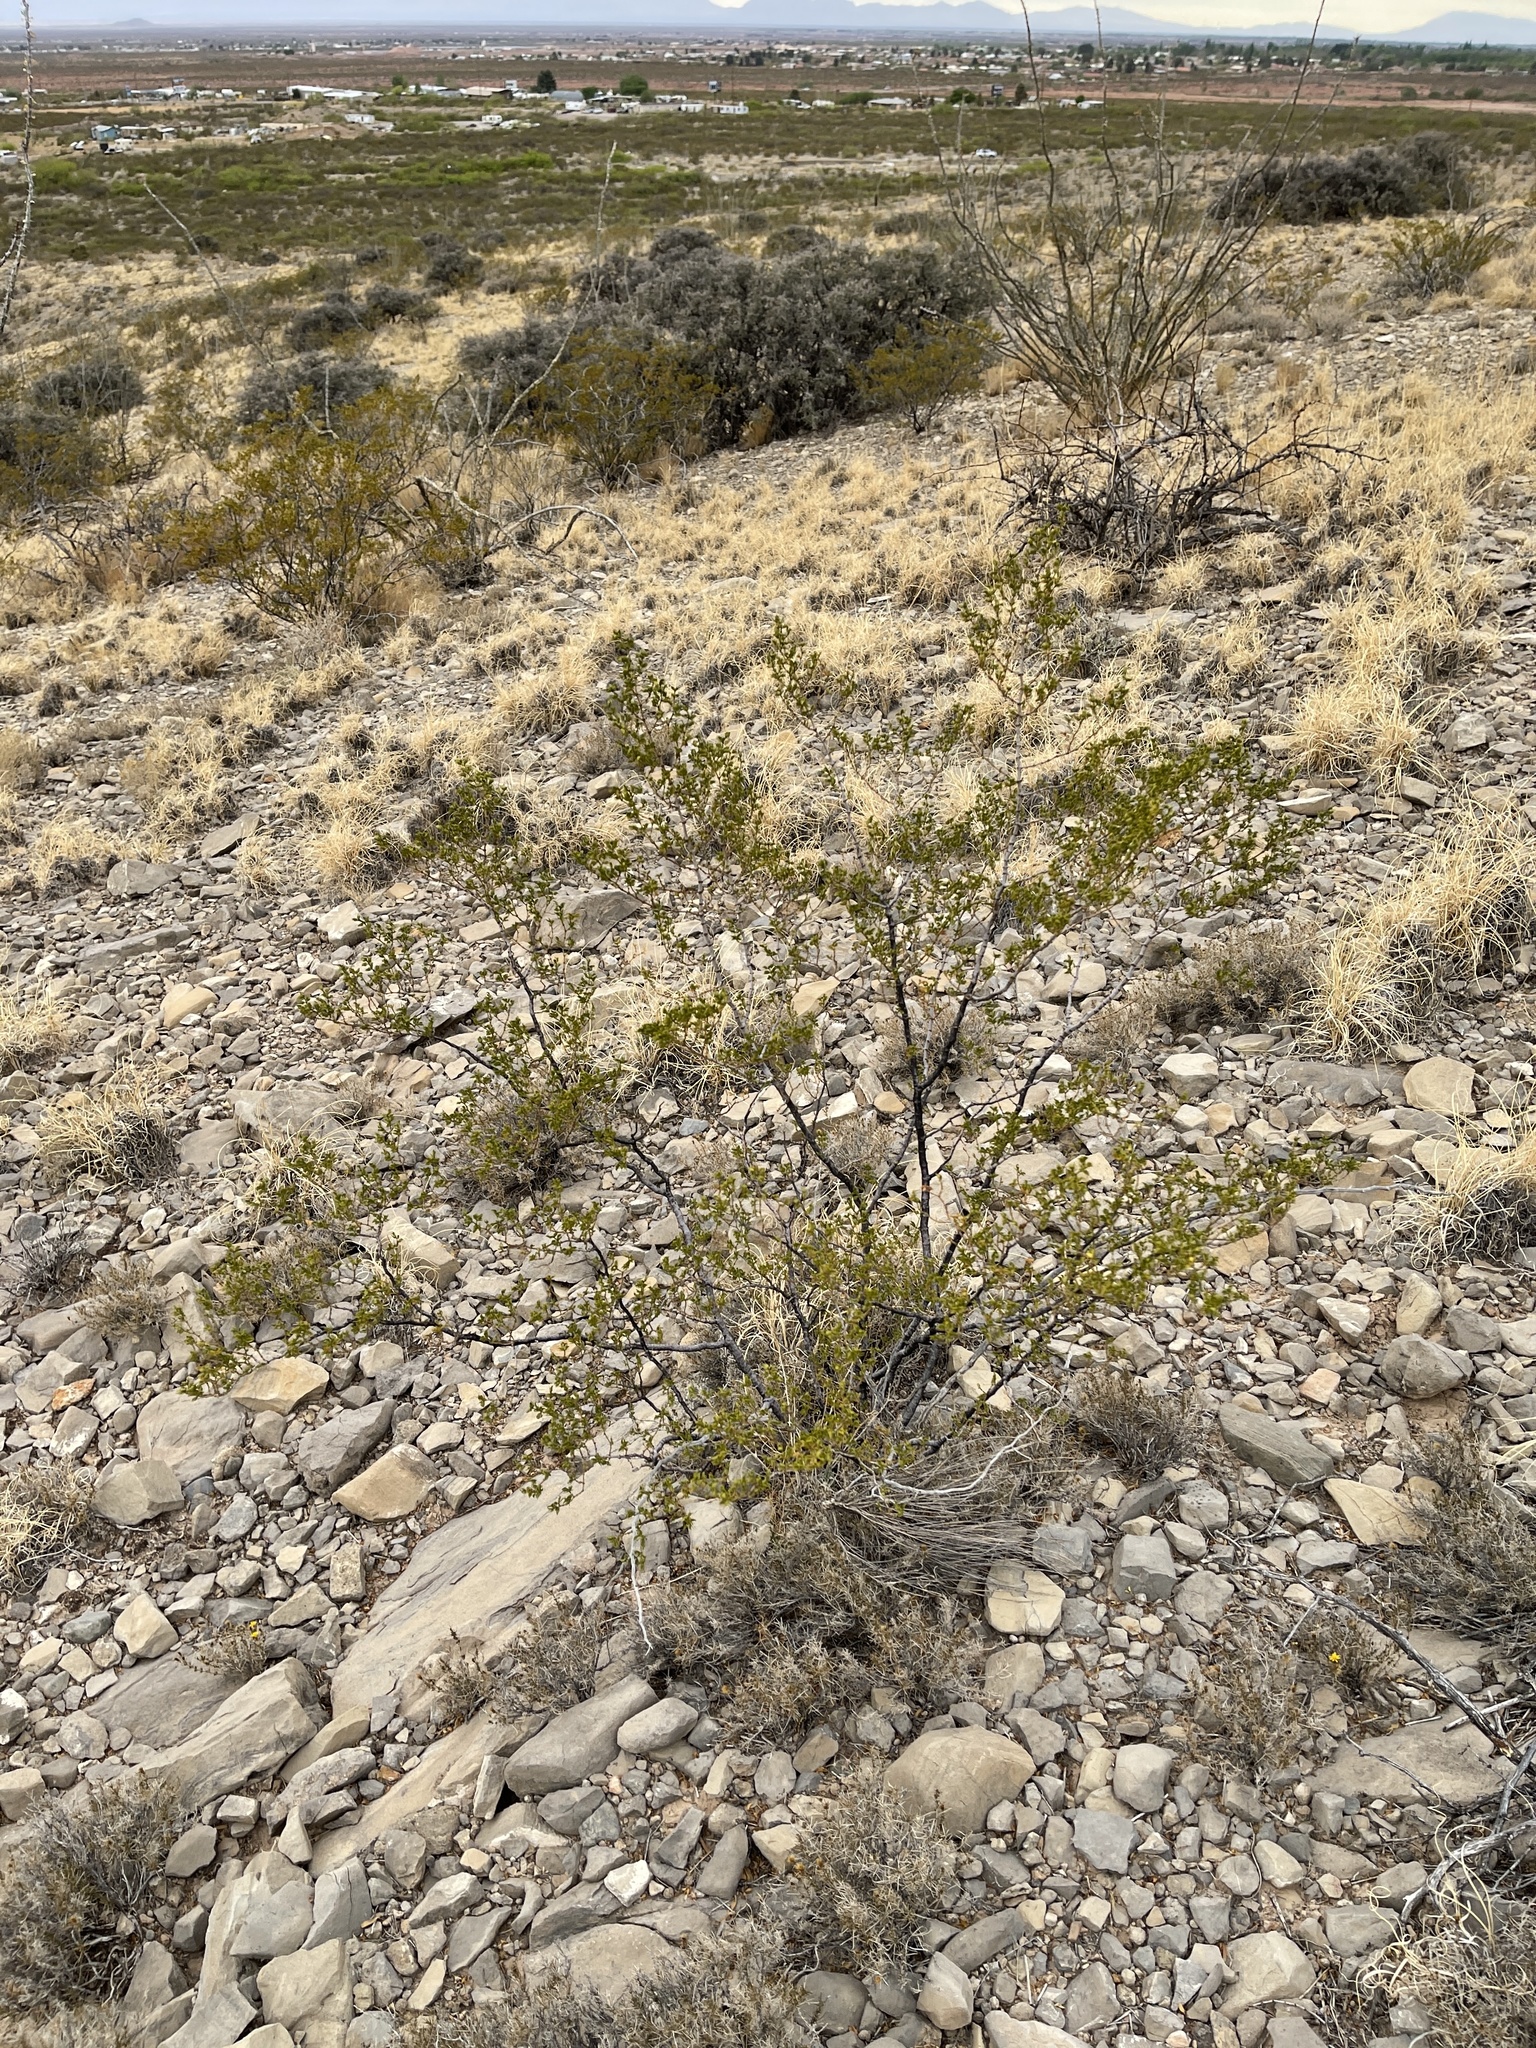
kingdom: Plantae
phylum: Tracheophyta
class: Magnoliopsida
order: Zygophyllales
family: Zygophyllaceae
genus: Larrea
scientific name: Larrea tridentata
